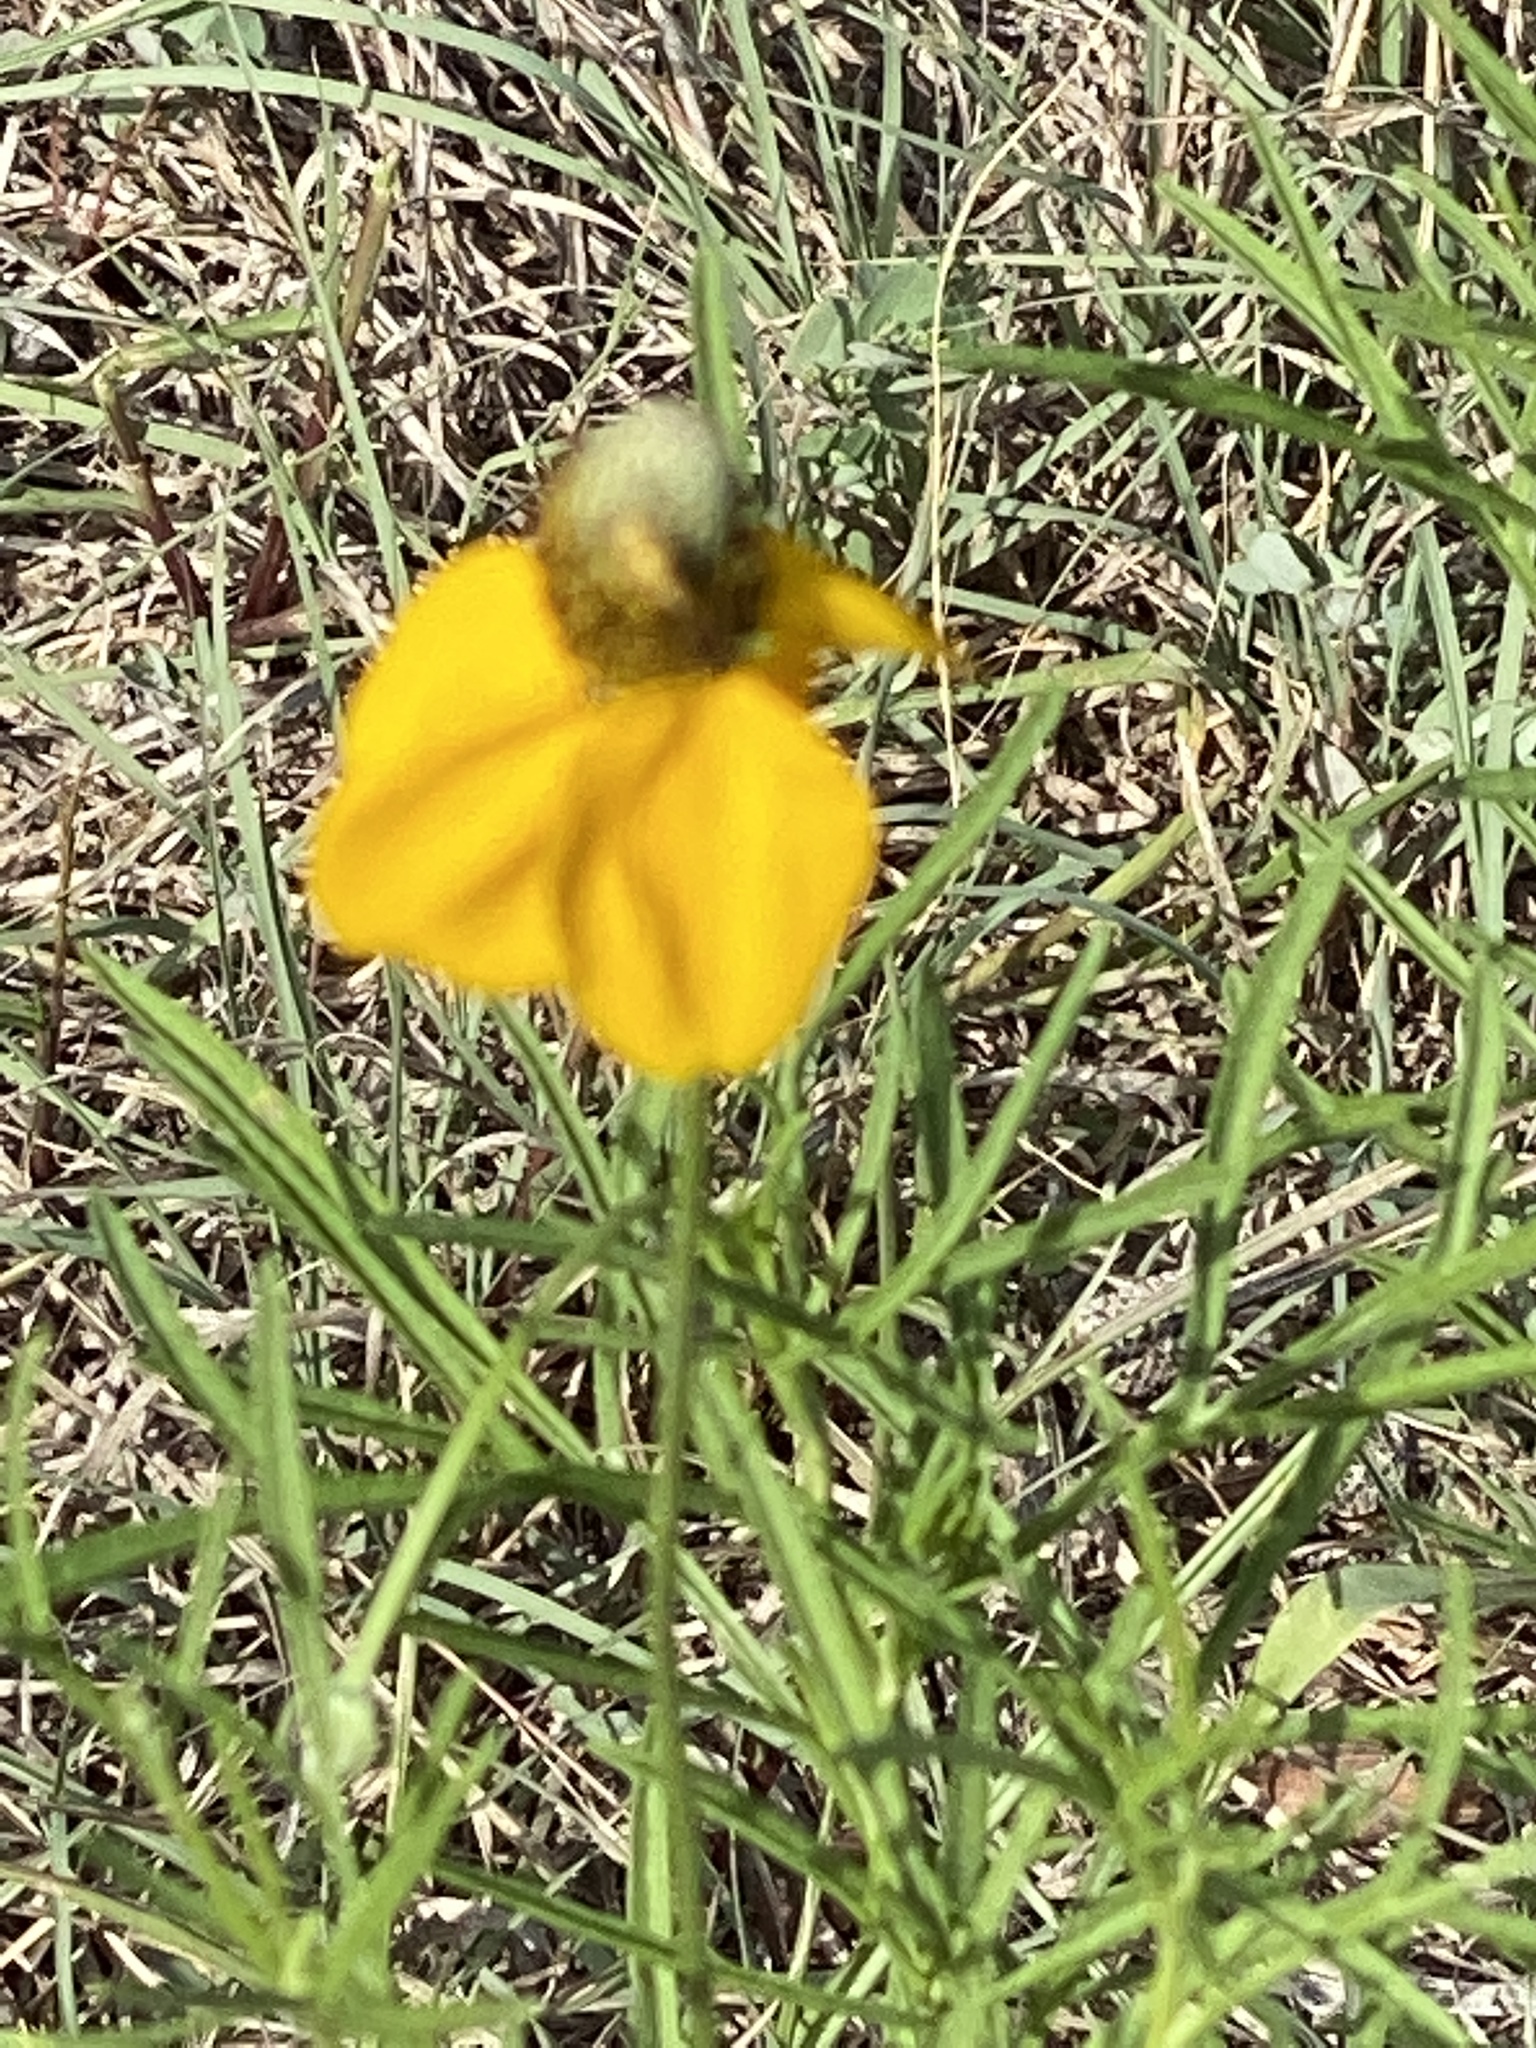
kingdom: Plantae
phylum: Tracheophyta
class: Magnoliopsida
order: Asterales
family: Asteraceae
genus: Ratibida
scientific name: Ratibida columnifera
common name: Prairie coneflower
